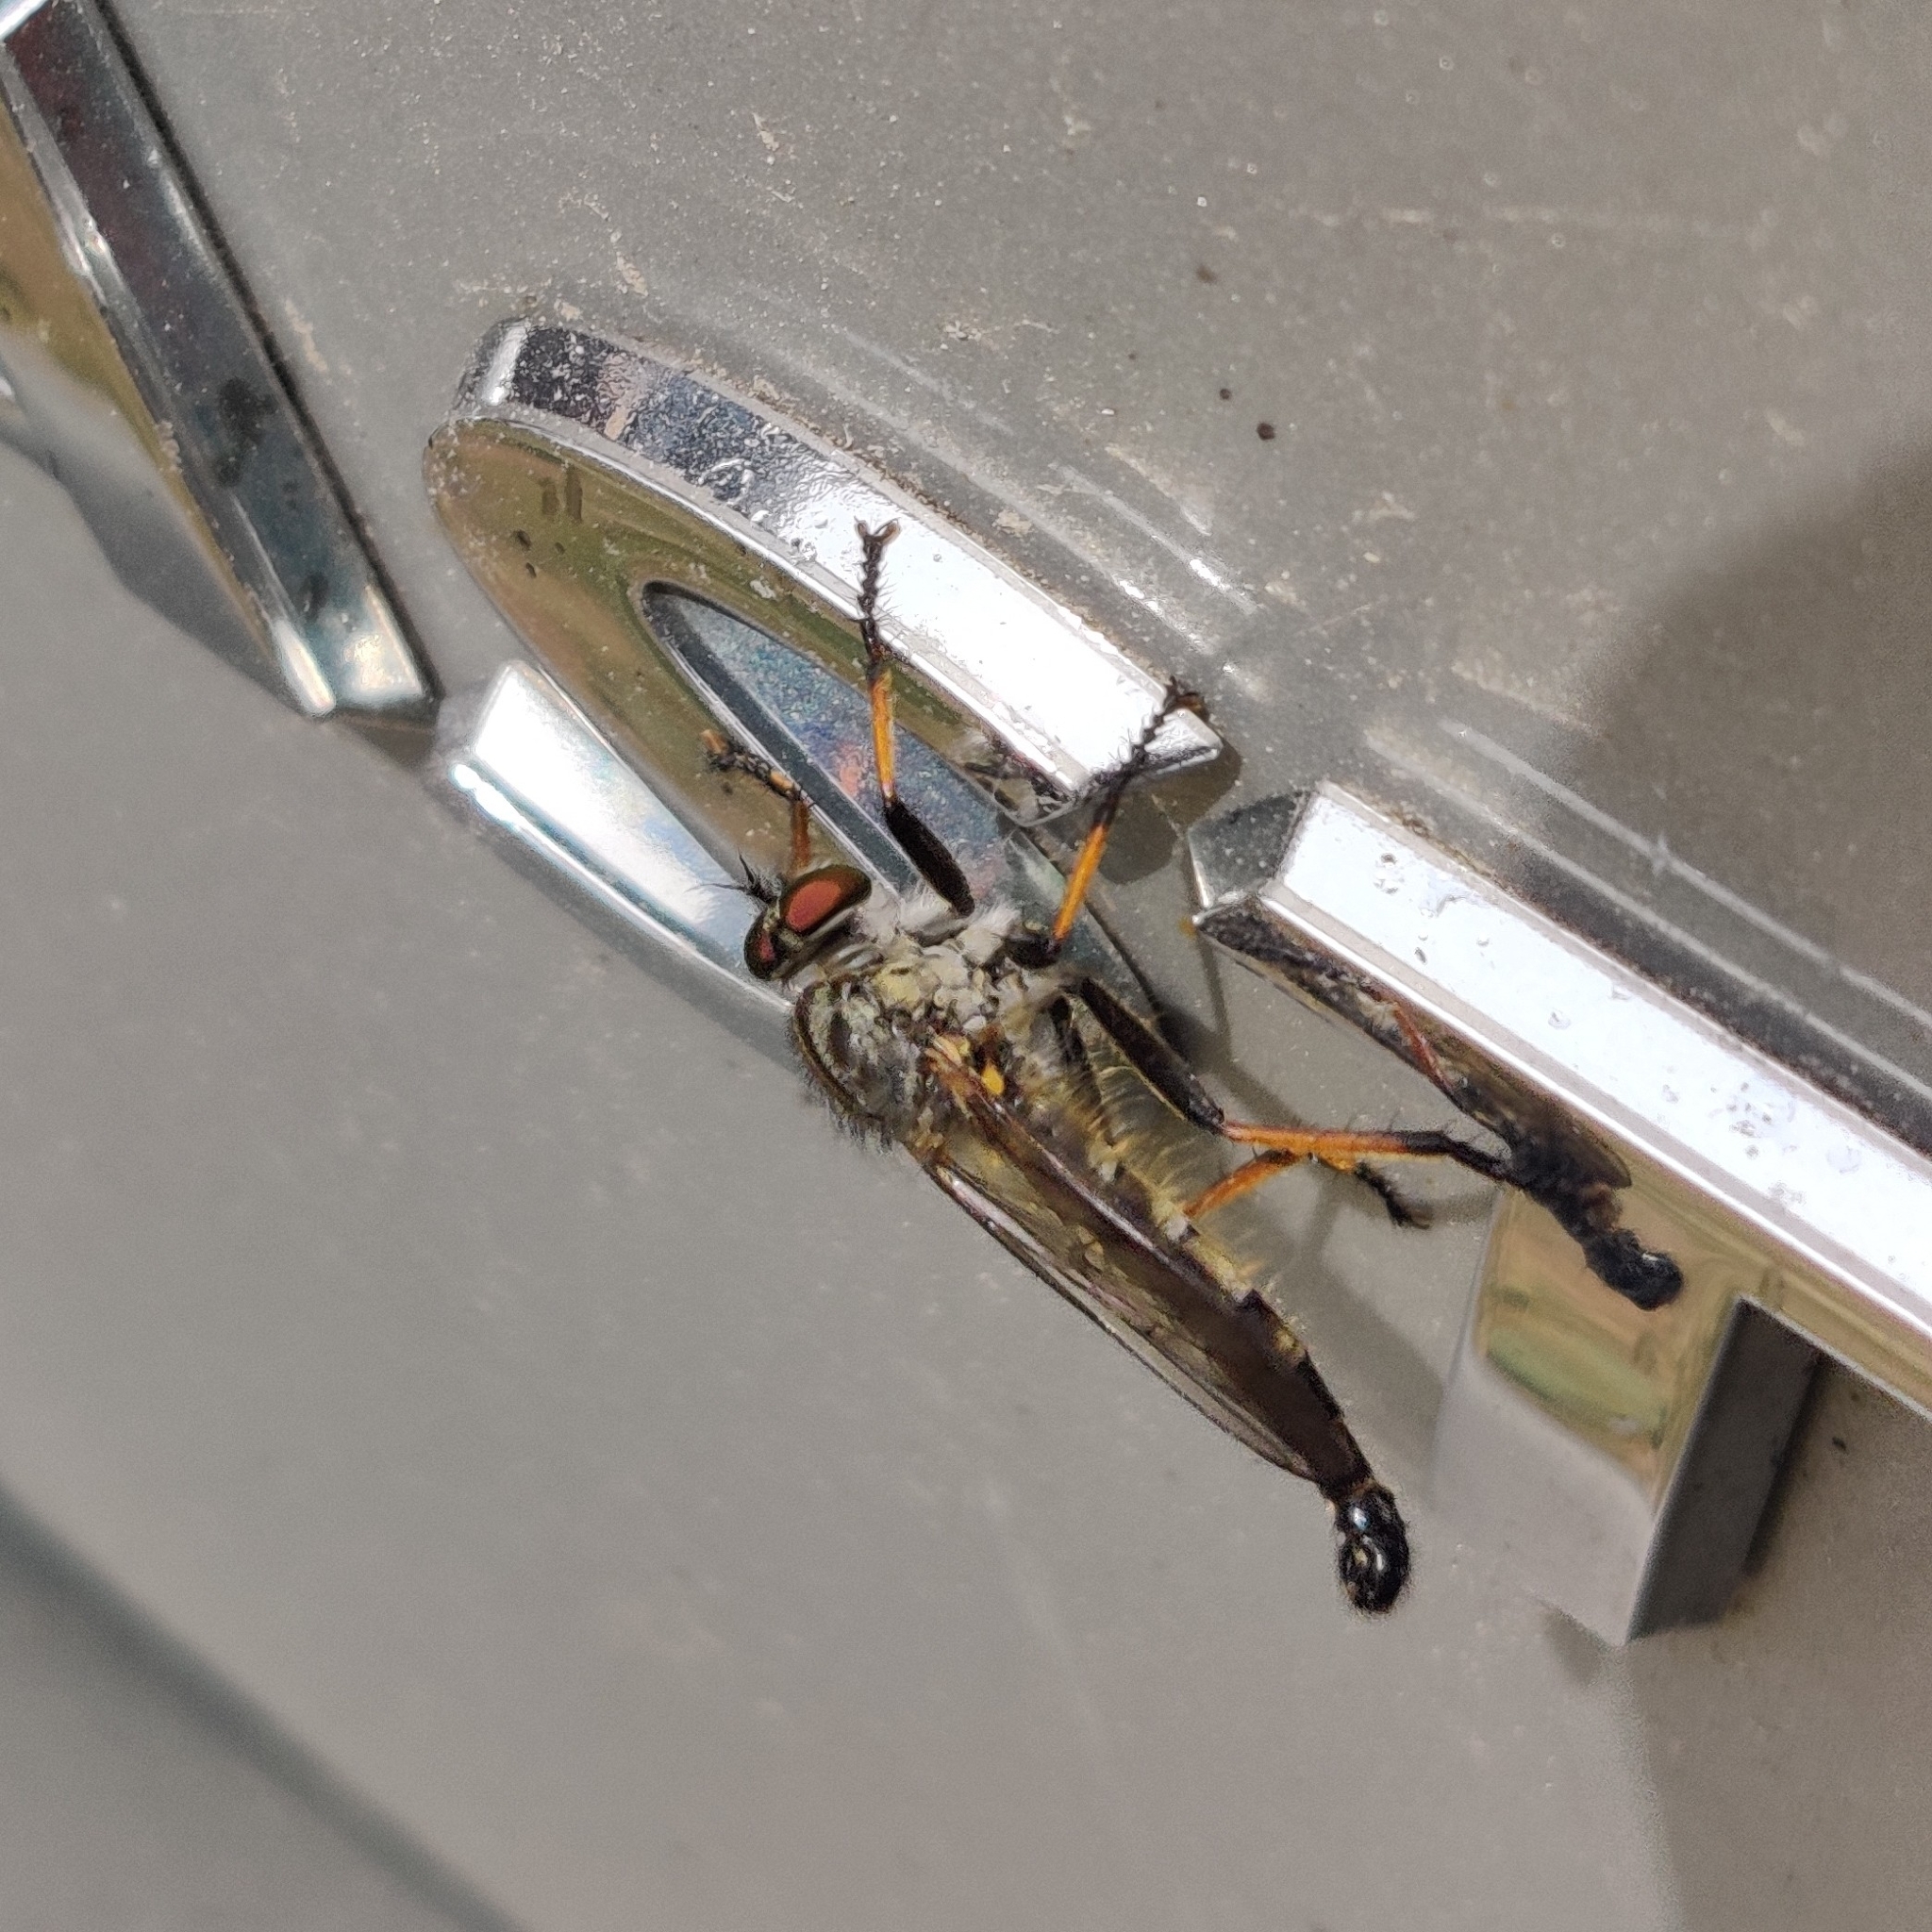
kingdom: Animalia
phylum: Arthropoda
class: Insecta
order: Diptera
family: Asilidae
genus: Neoitamus
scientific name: Neoitamus
